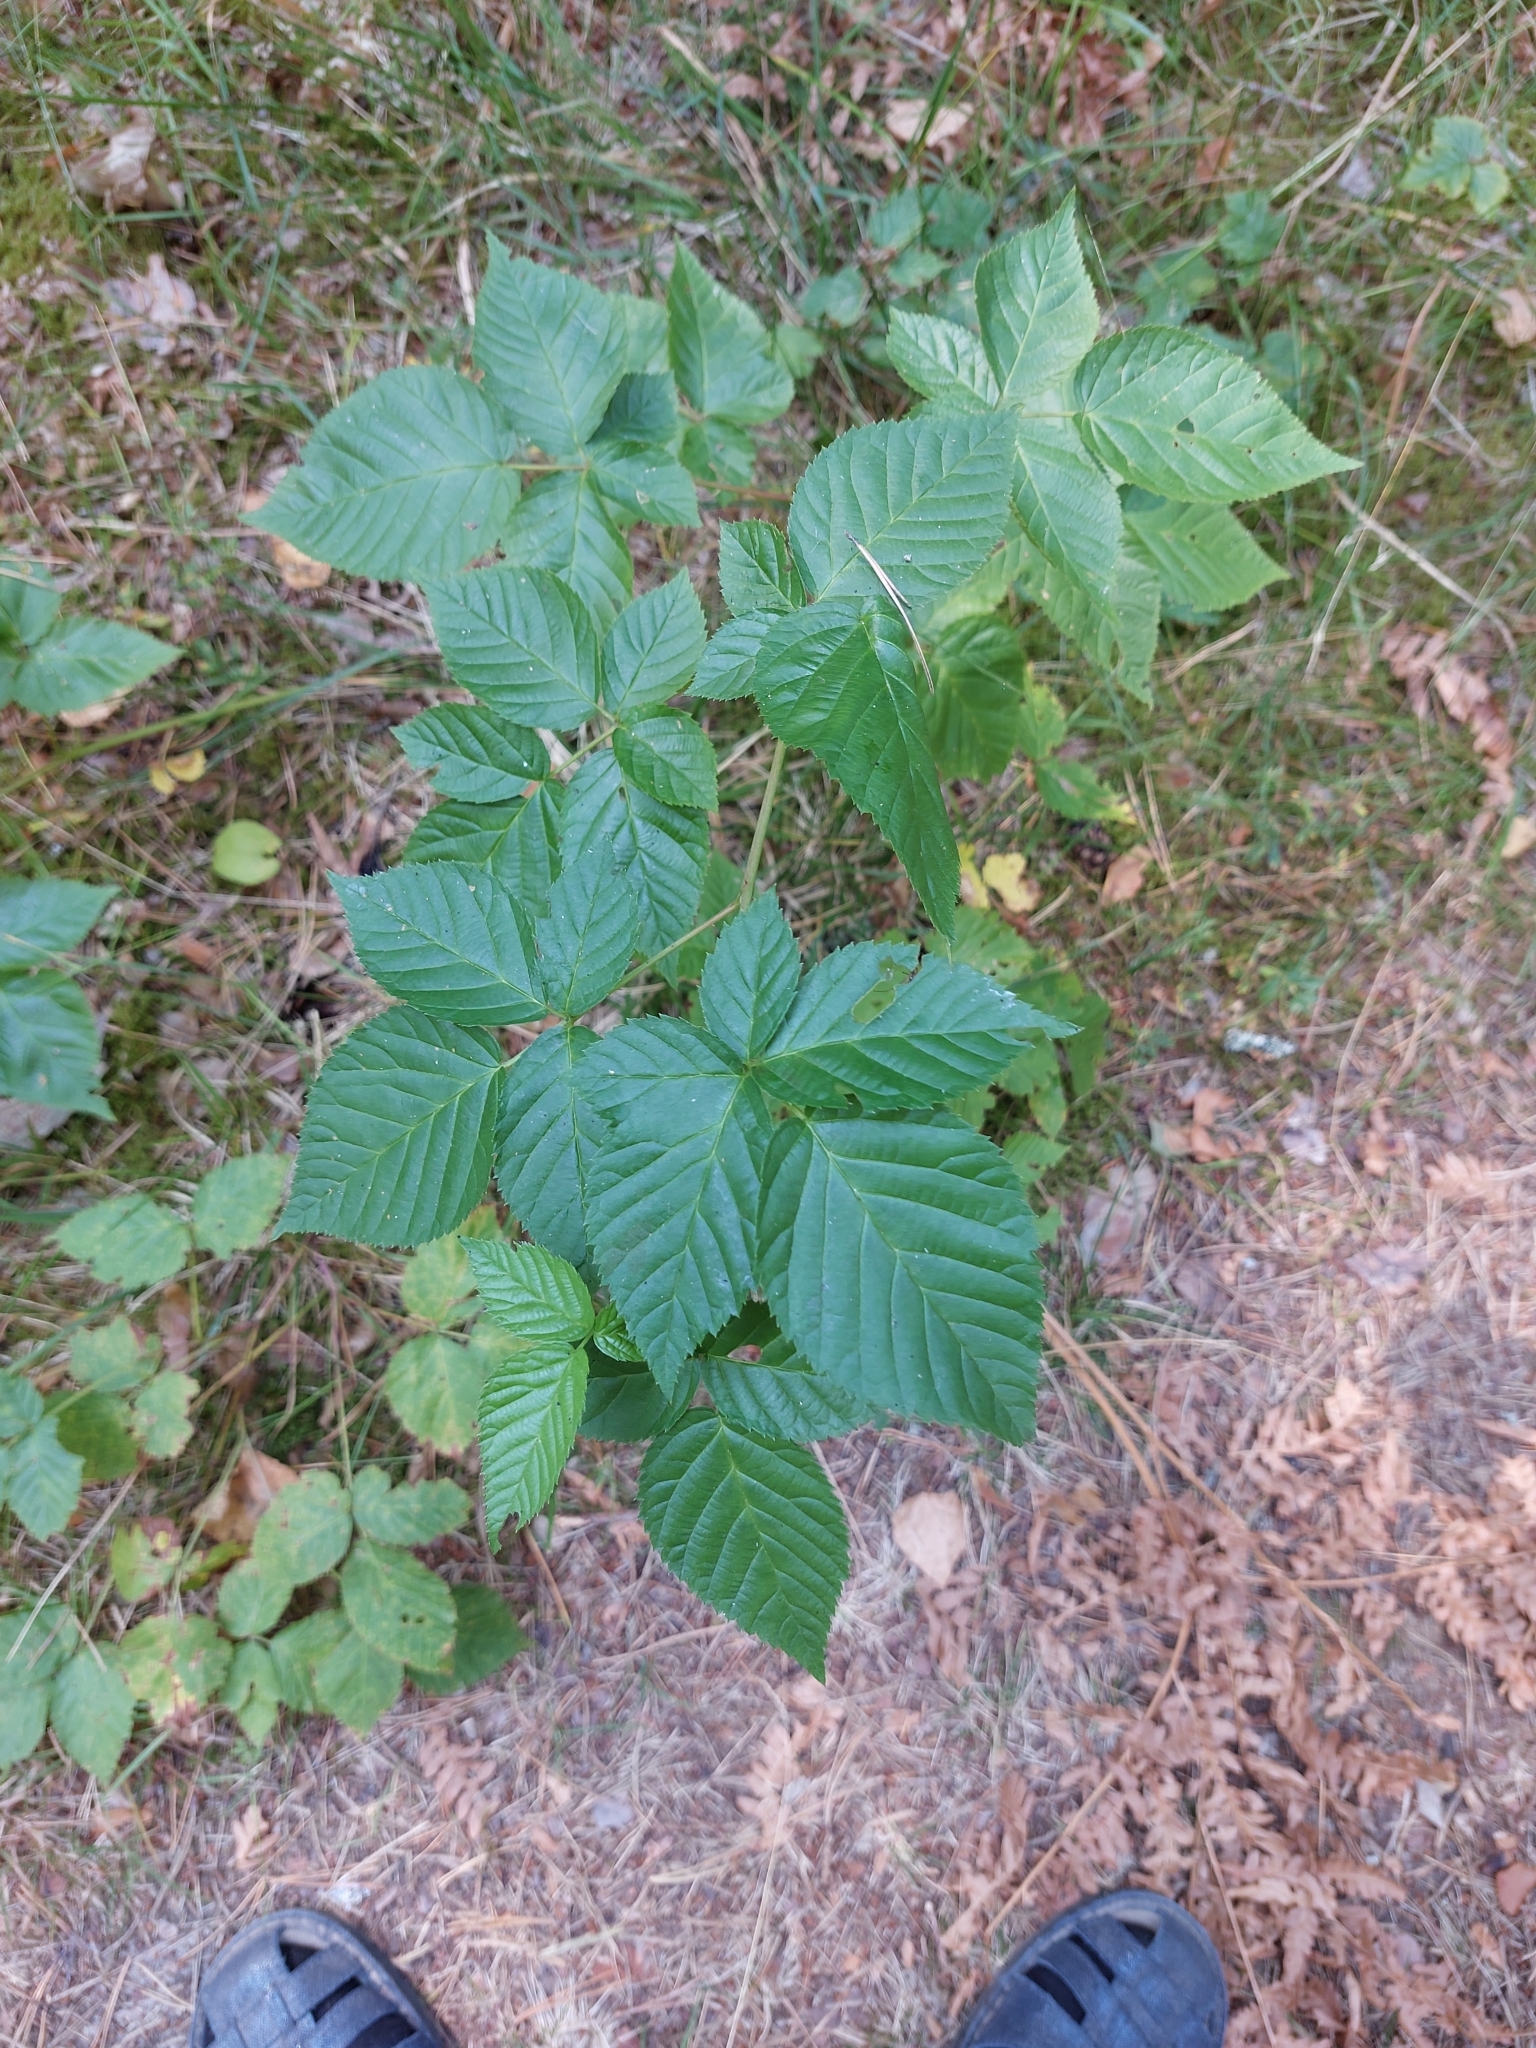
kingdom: Plantae
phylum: Tracheophyta
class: Magnoliopsida
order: Rosales
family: Rosaceae
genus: Rubus
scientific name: Rubus polonicus
